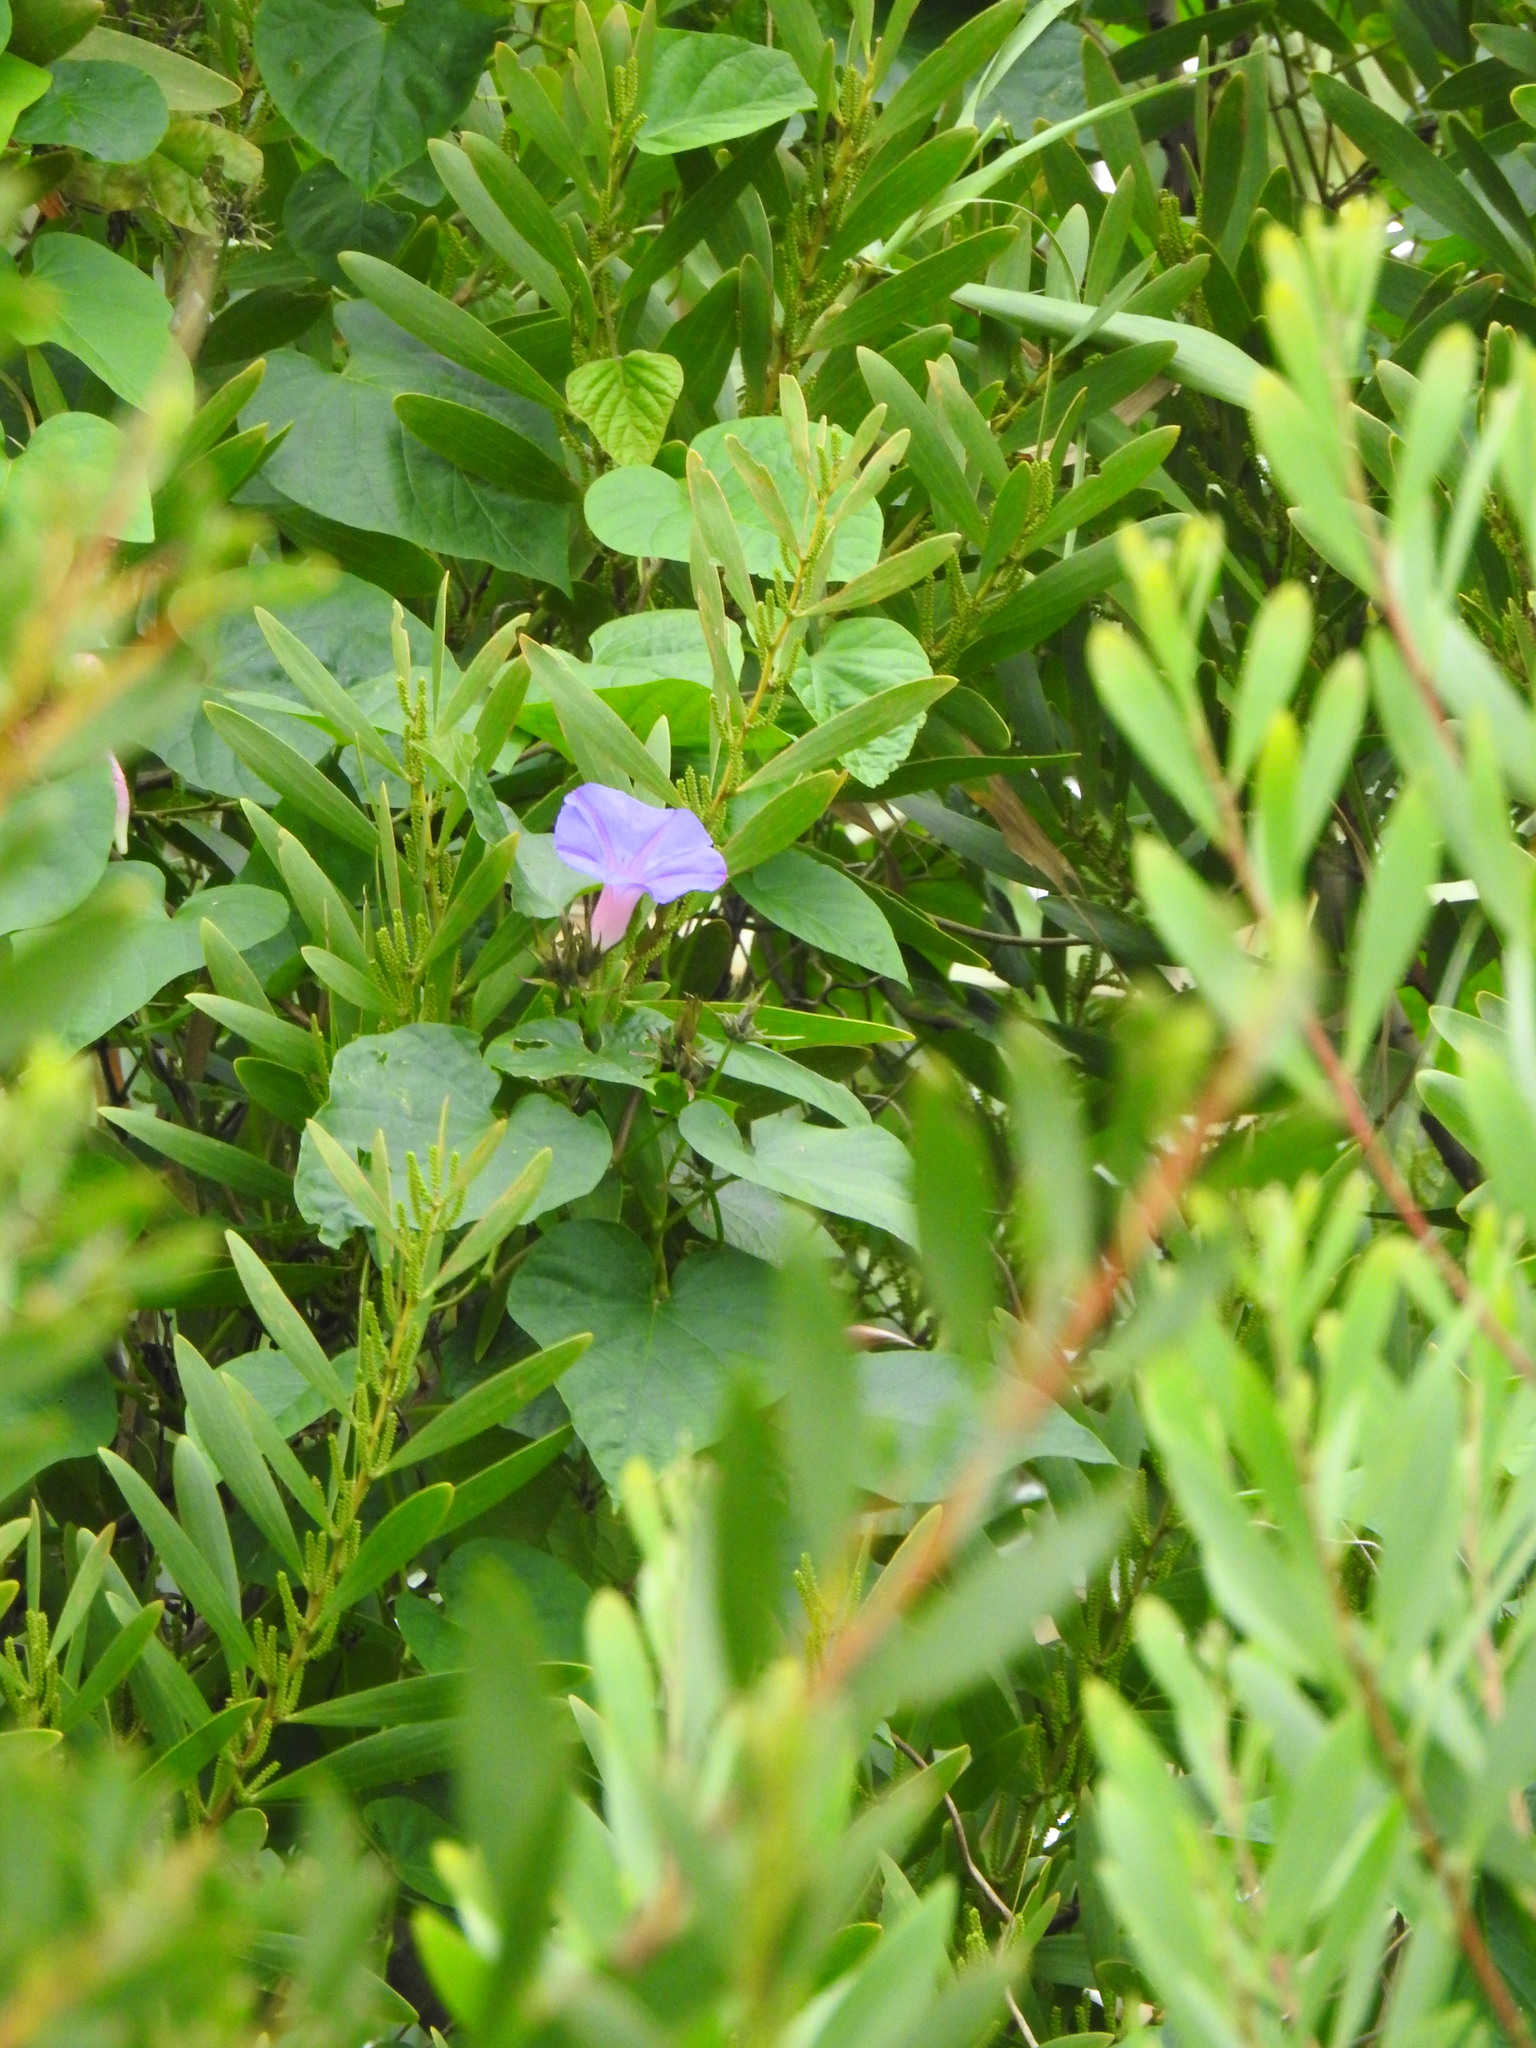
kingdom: Plantae
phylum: Tracheophyta
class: Magnoliopsida
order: Solanales
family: Convolvulaceae
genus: Ipomoea
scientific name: Ipomoea indica
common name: Blue dawnflower
